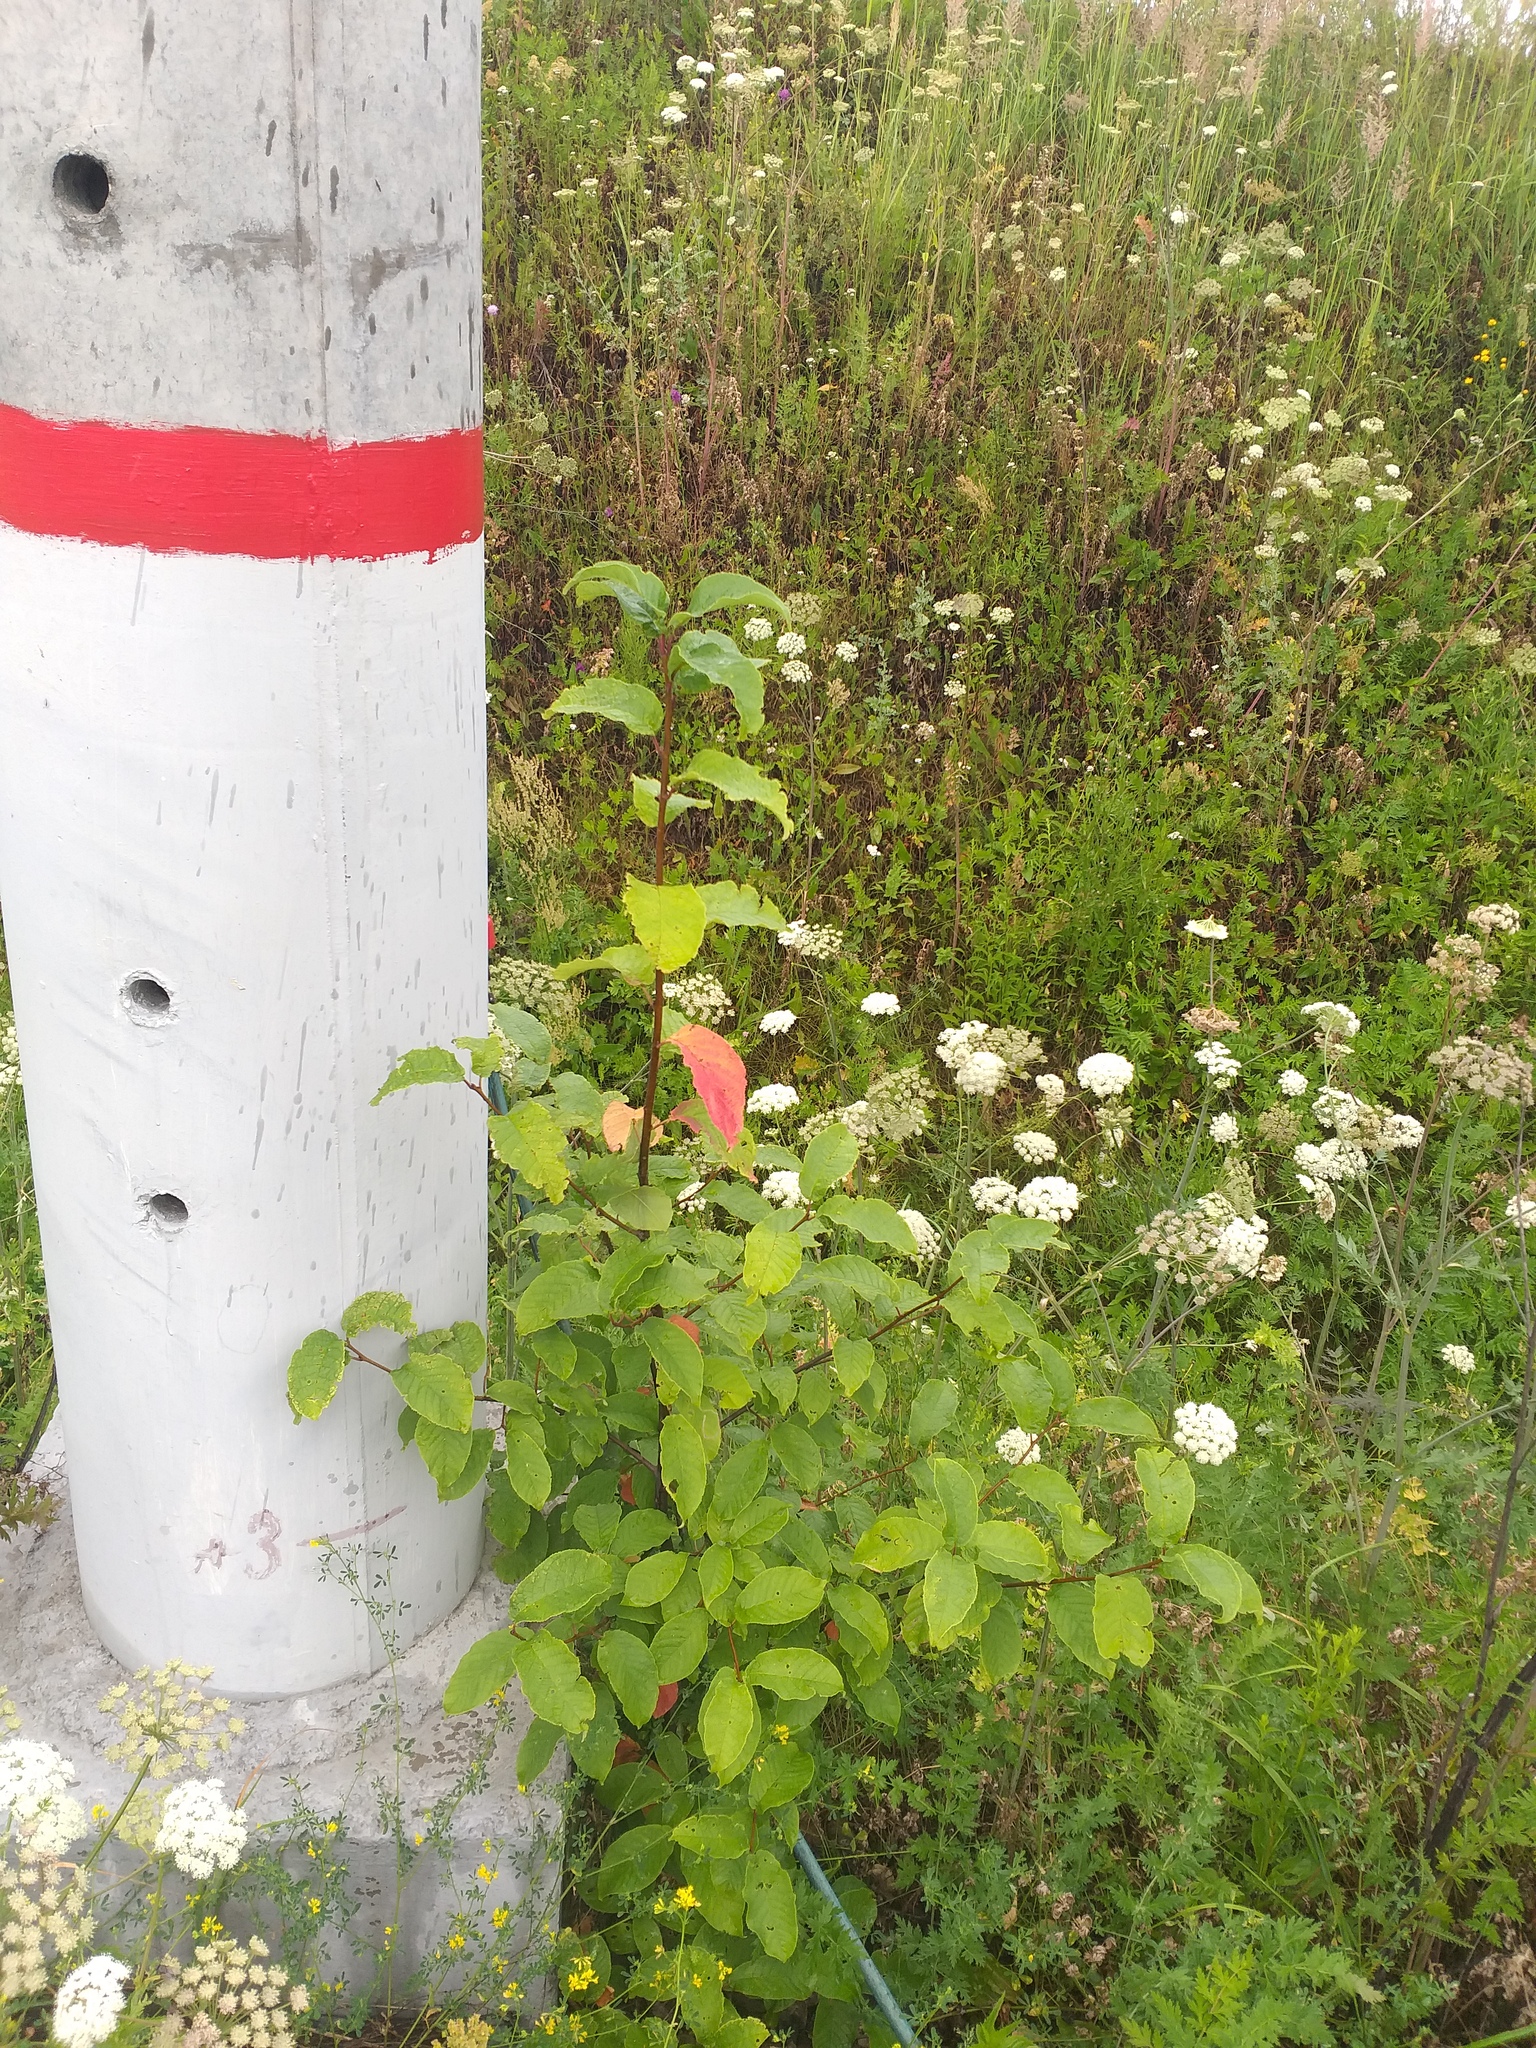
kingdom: Plantae
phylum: Tracheophyta
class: Magnoliopsida
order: Rosales
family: Rosaceae
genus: Prunus
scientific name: Prunus padus
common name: Bird cherry
